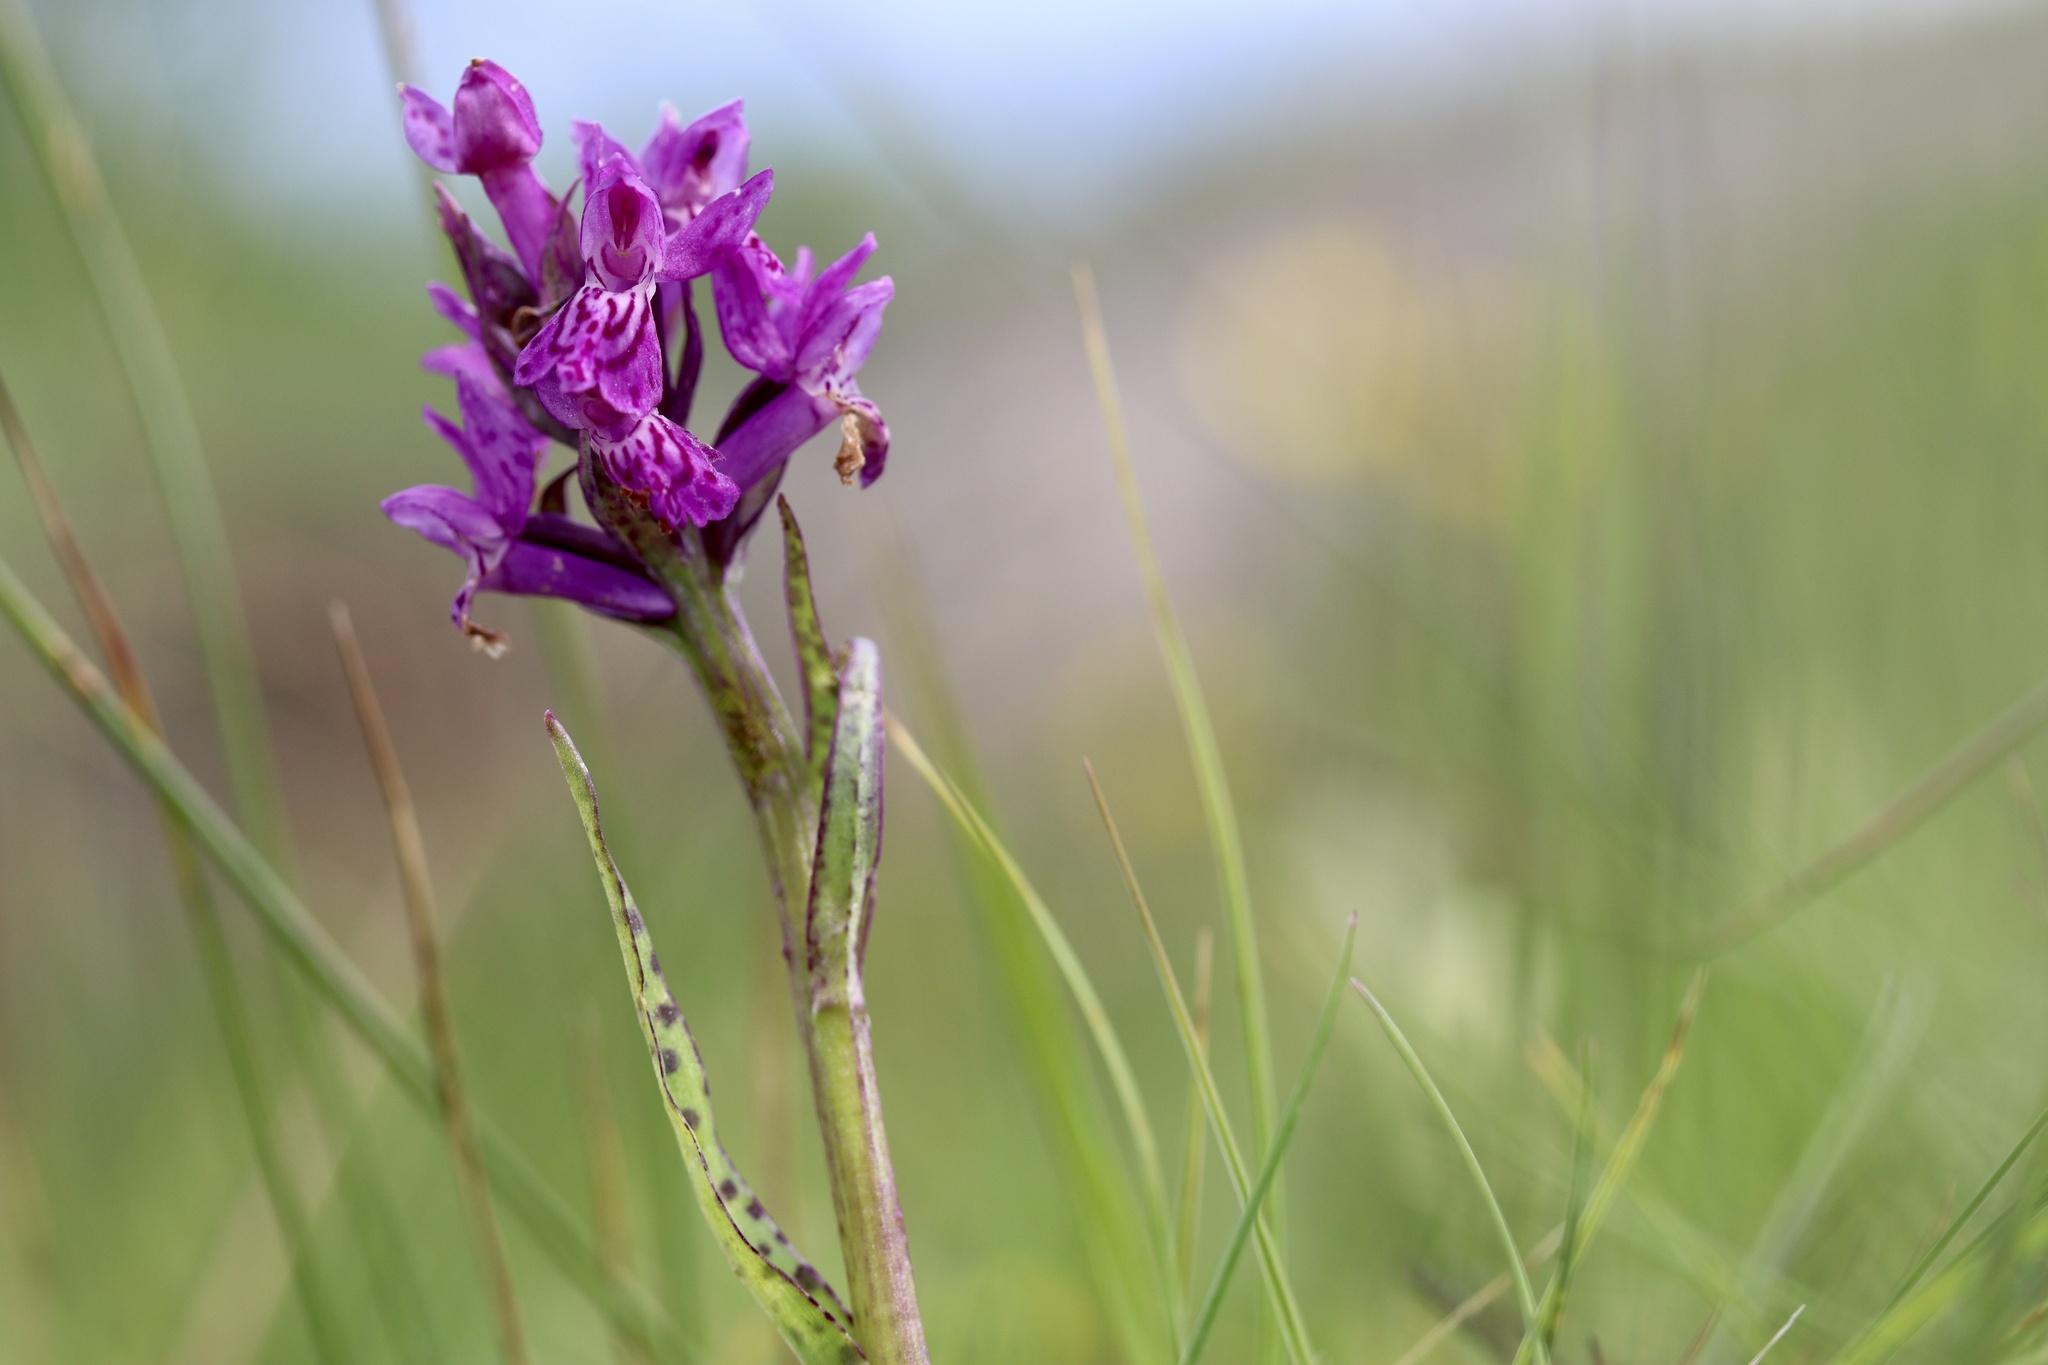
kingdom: Plantae
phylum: Tracheophyta
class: Liliopsida
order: Asparagales
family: Orchidaceae
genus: Dactylorhiza
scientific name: Dactylorhiza majalis
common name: Marsh orchid
